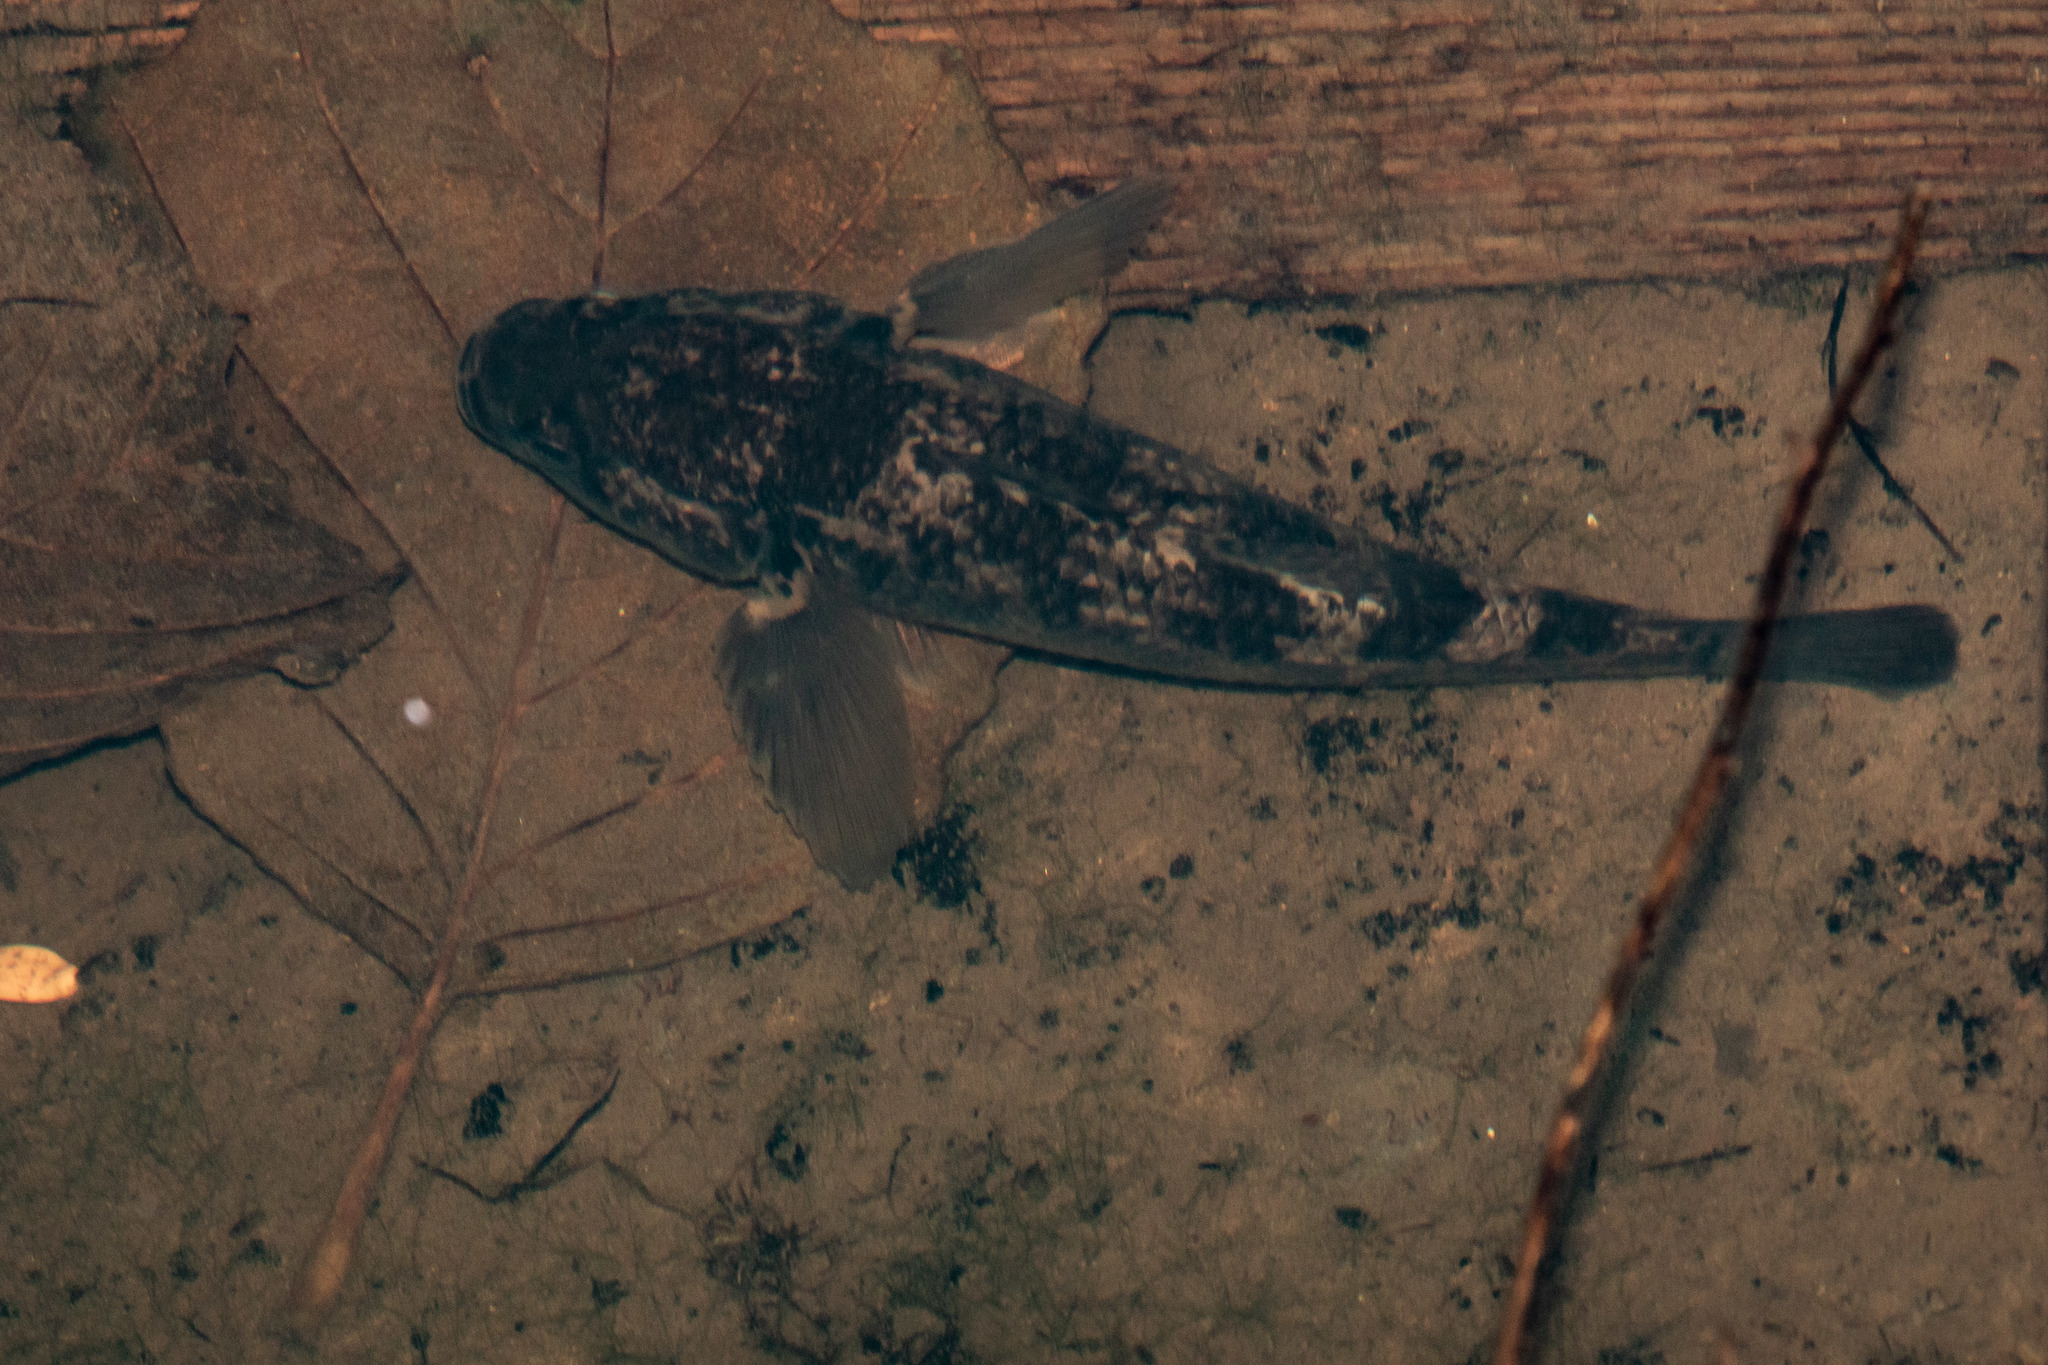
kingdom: Animalia
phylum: Chordata
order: Perciformes
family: Eleotridae
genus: Gobiomorphus
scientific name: Gobiomorphus gobioides
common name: Giant bully
